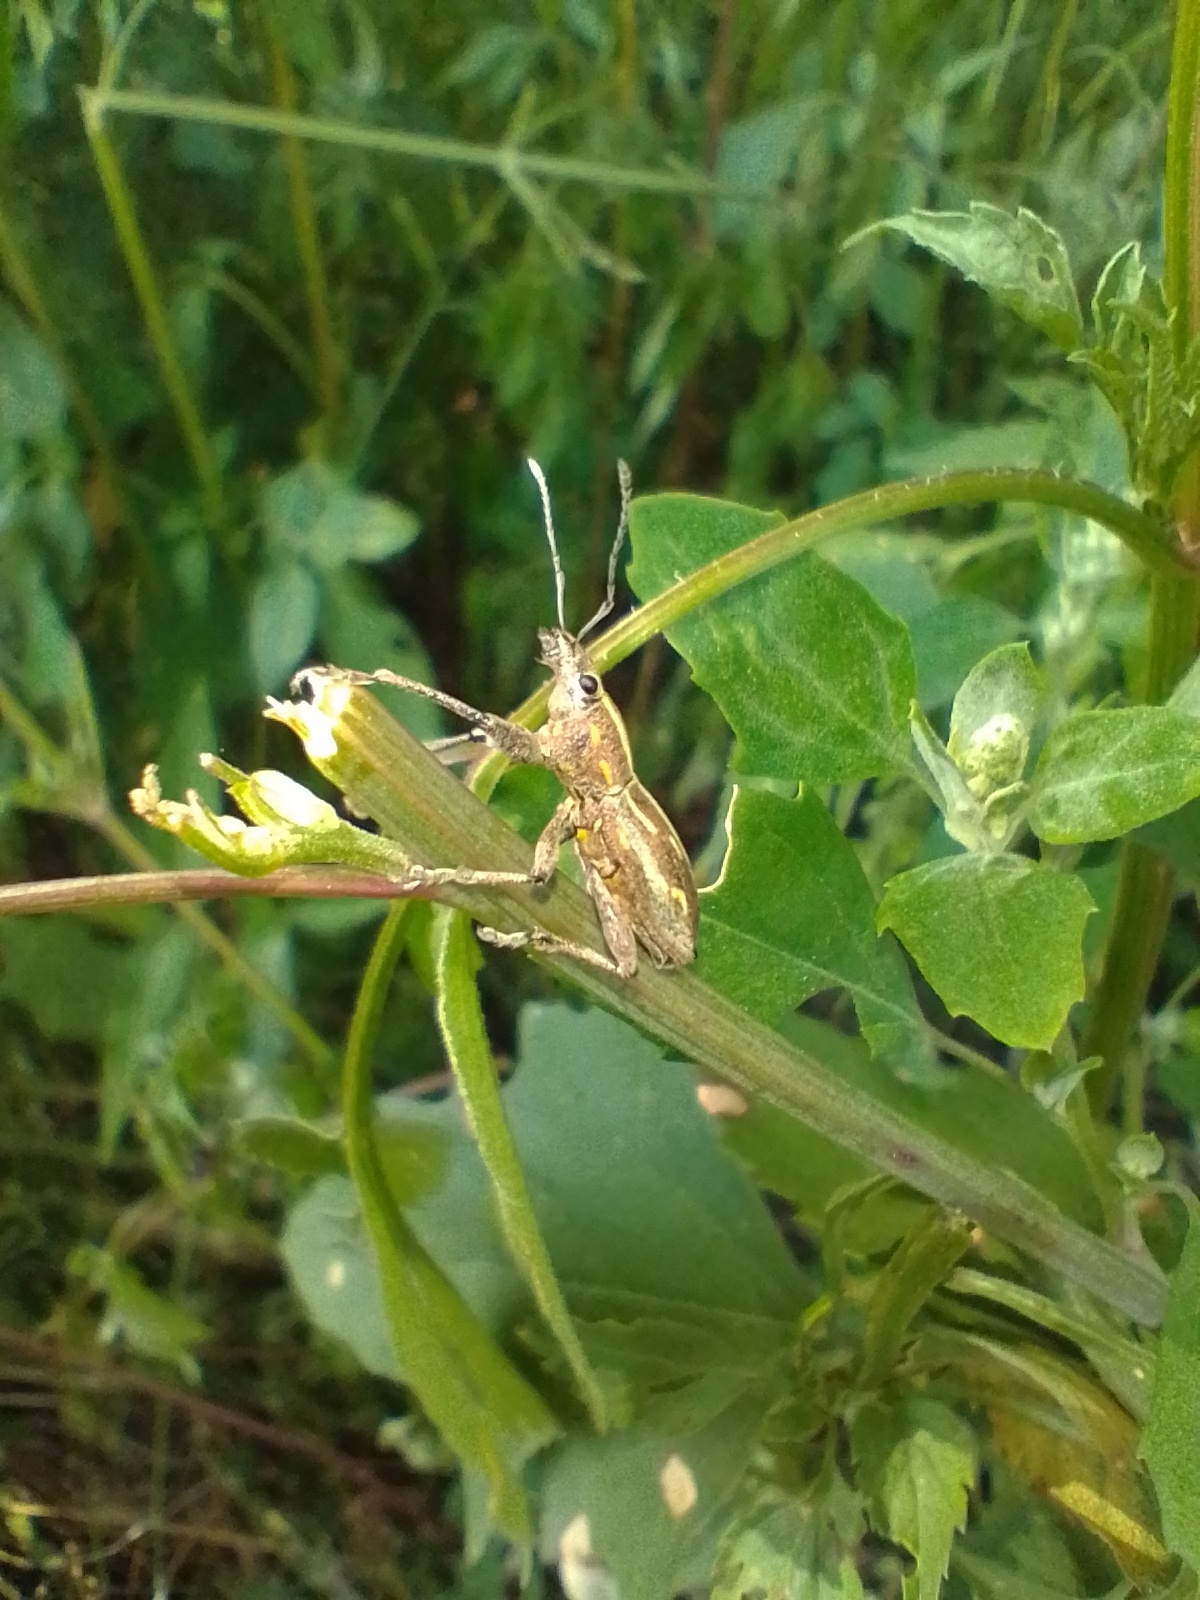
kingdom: Animalia
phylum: Arthropoda
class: Insecta
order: Coleoptera
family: Curculionidae
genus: Naupactus
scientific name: Naupactus xanthographus
